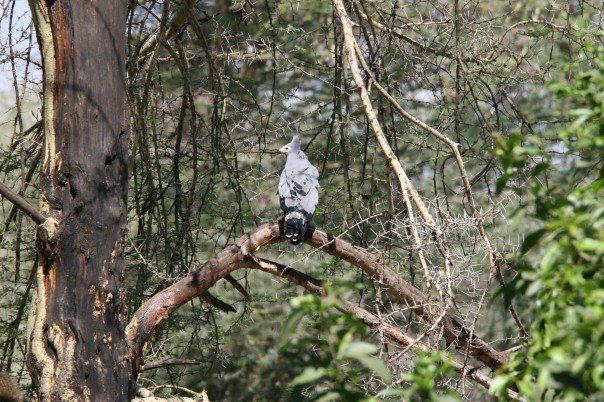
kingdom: Animalia
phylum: Chordata
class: Aves
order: Accipitriformes
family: Accipitridae
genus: Polyboroides
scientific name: Polyboroides typus
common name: African harrier-hawk
